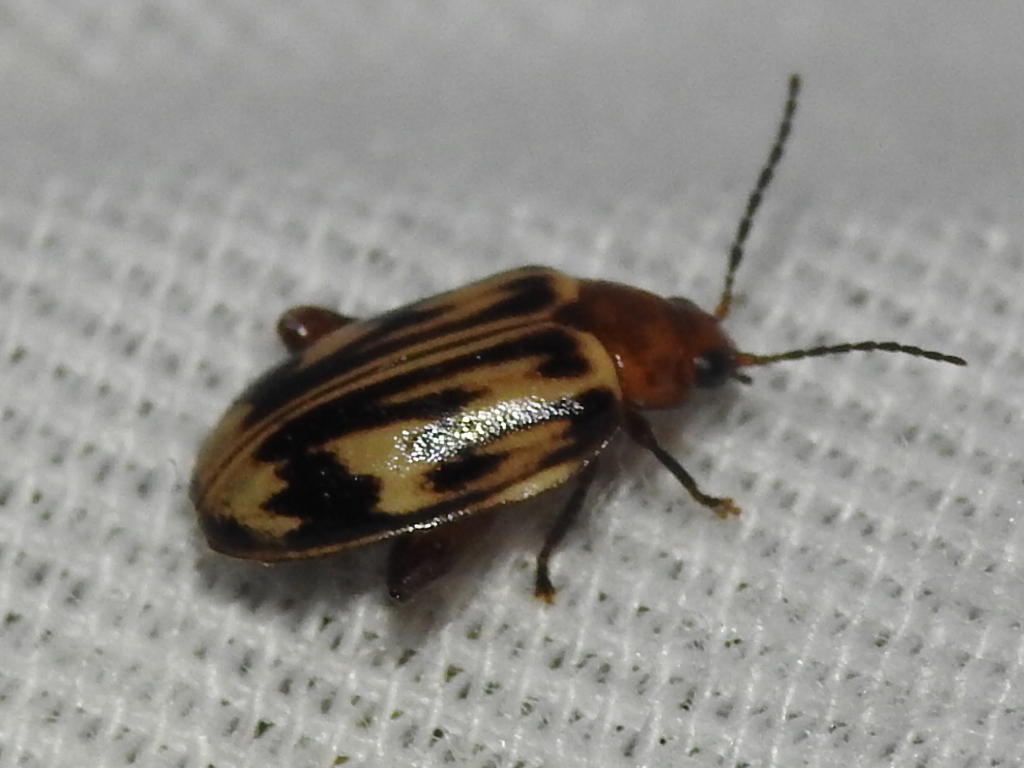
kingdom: Animalia
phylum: Arthropoda
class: Insecta
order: Coleoptera
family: Scirtidae
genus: Ora
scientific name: Ora troberti
